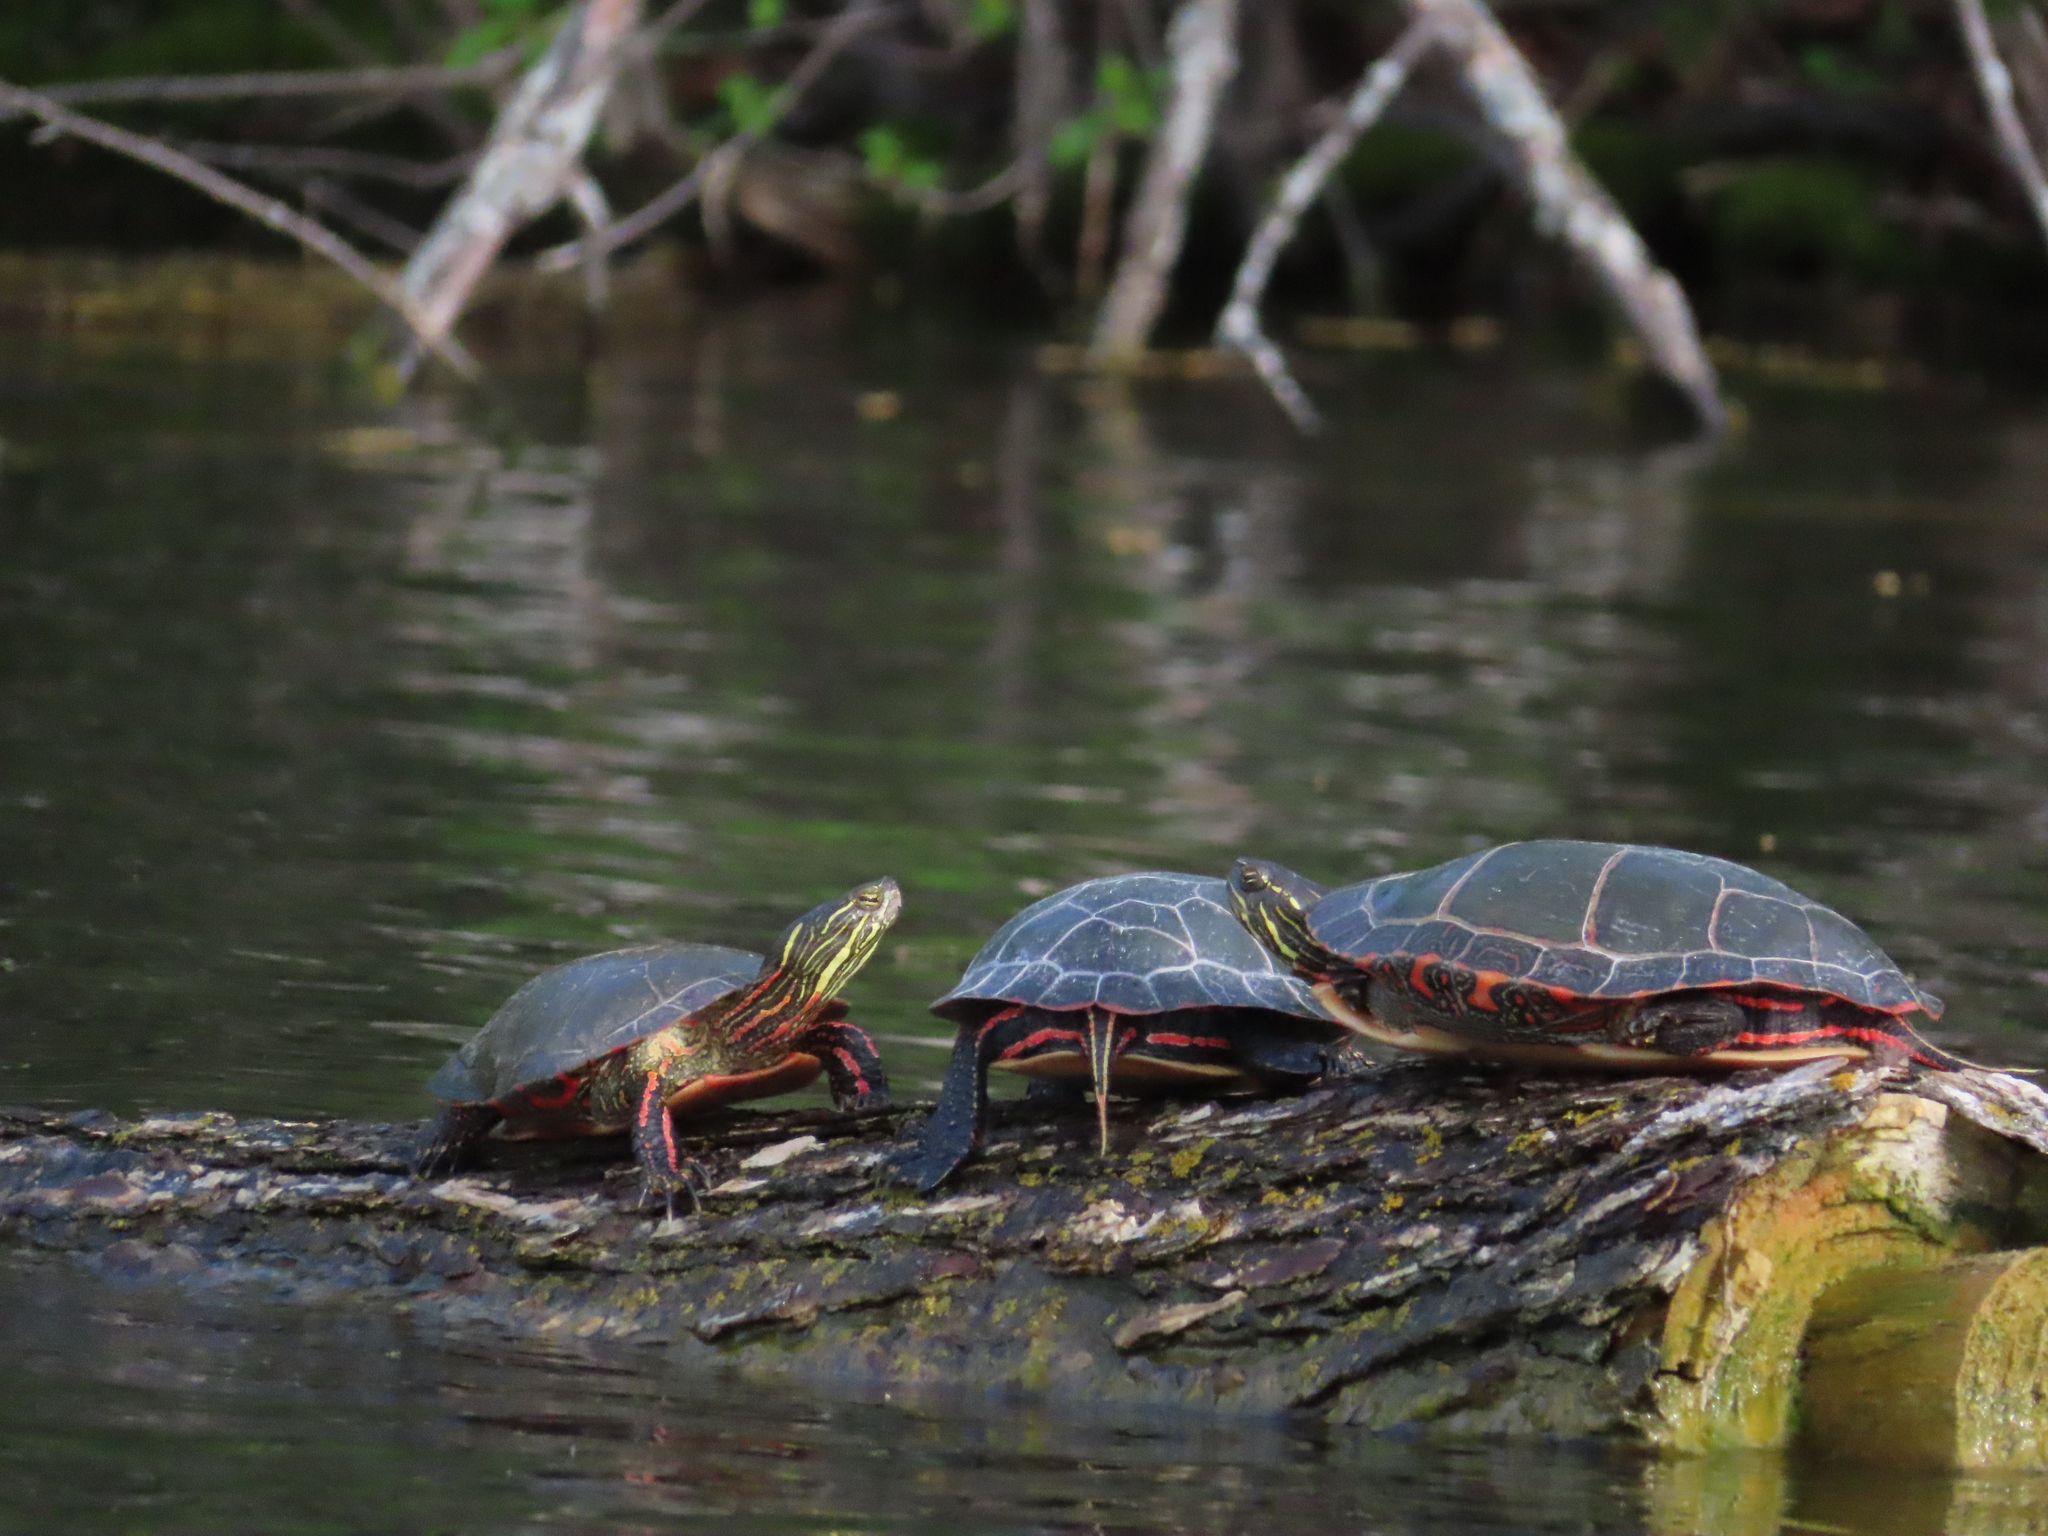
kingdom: Animalia
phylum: Chordata
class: Testudines
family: Emydidae
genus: Chrysemys
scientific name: Chrysemys picta
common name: Painted turtle
